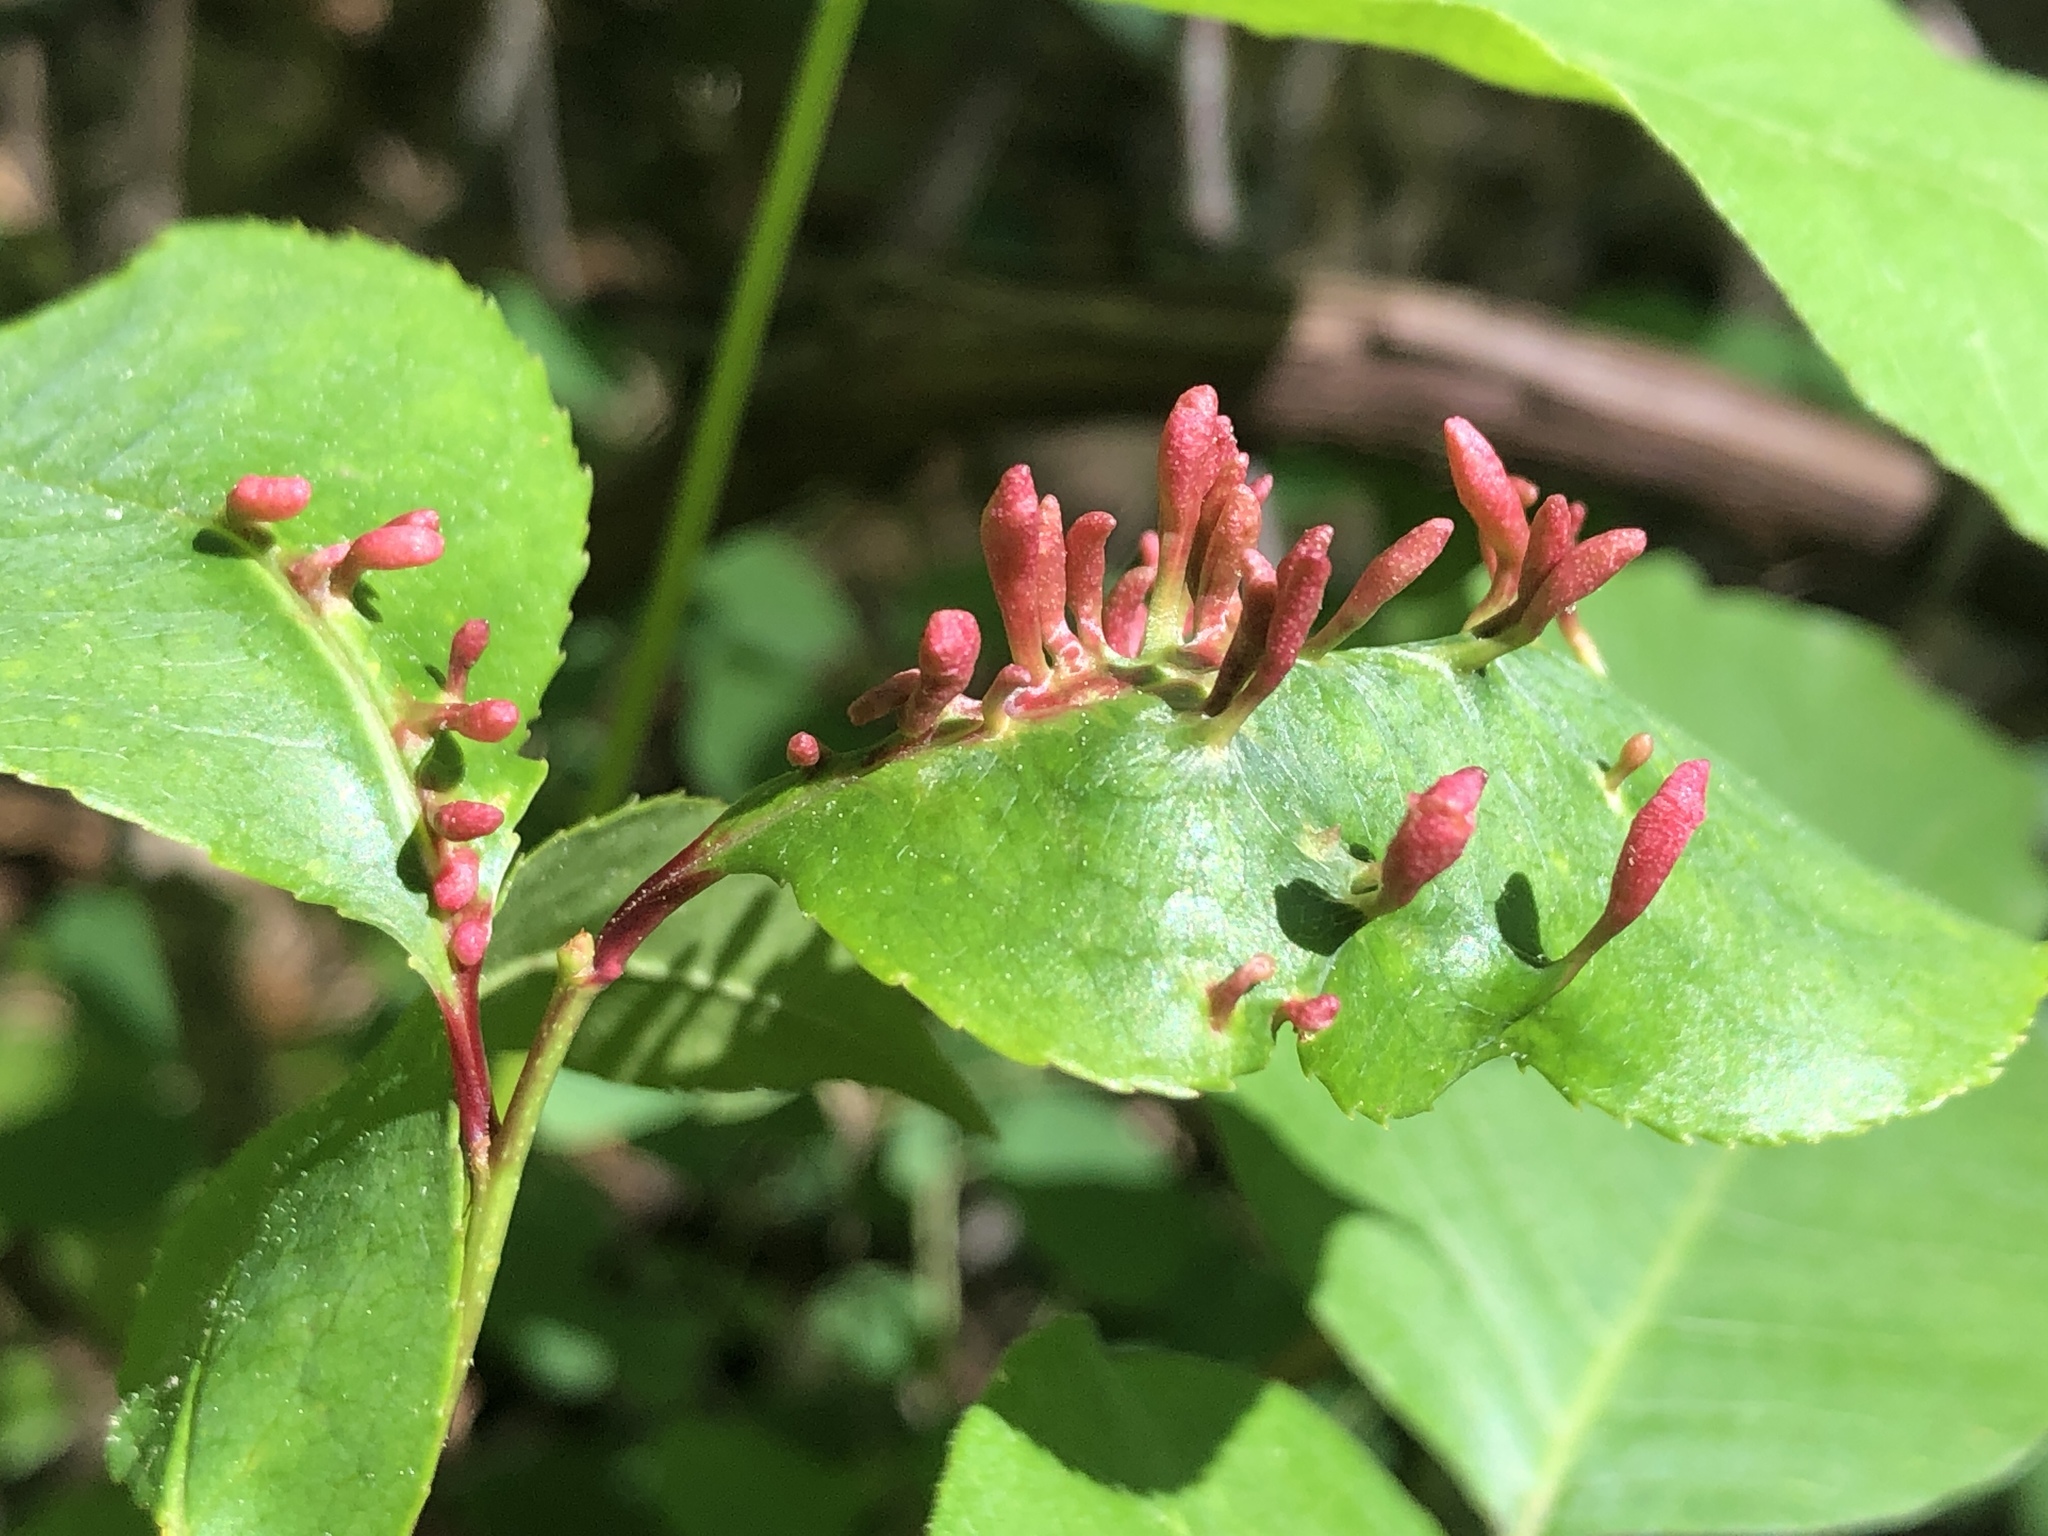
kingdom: Animalia
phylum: Arthropoda
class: Arachnida
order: Trombidiformes
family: Eriophyidae
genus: Eriophyes
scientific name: Eriophyes
